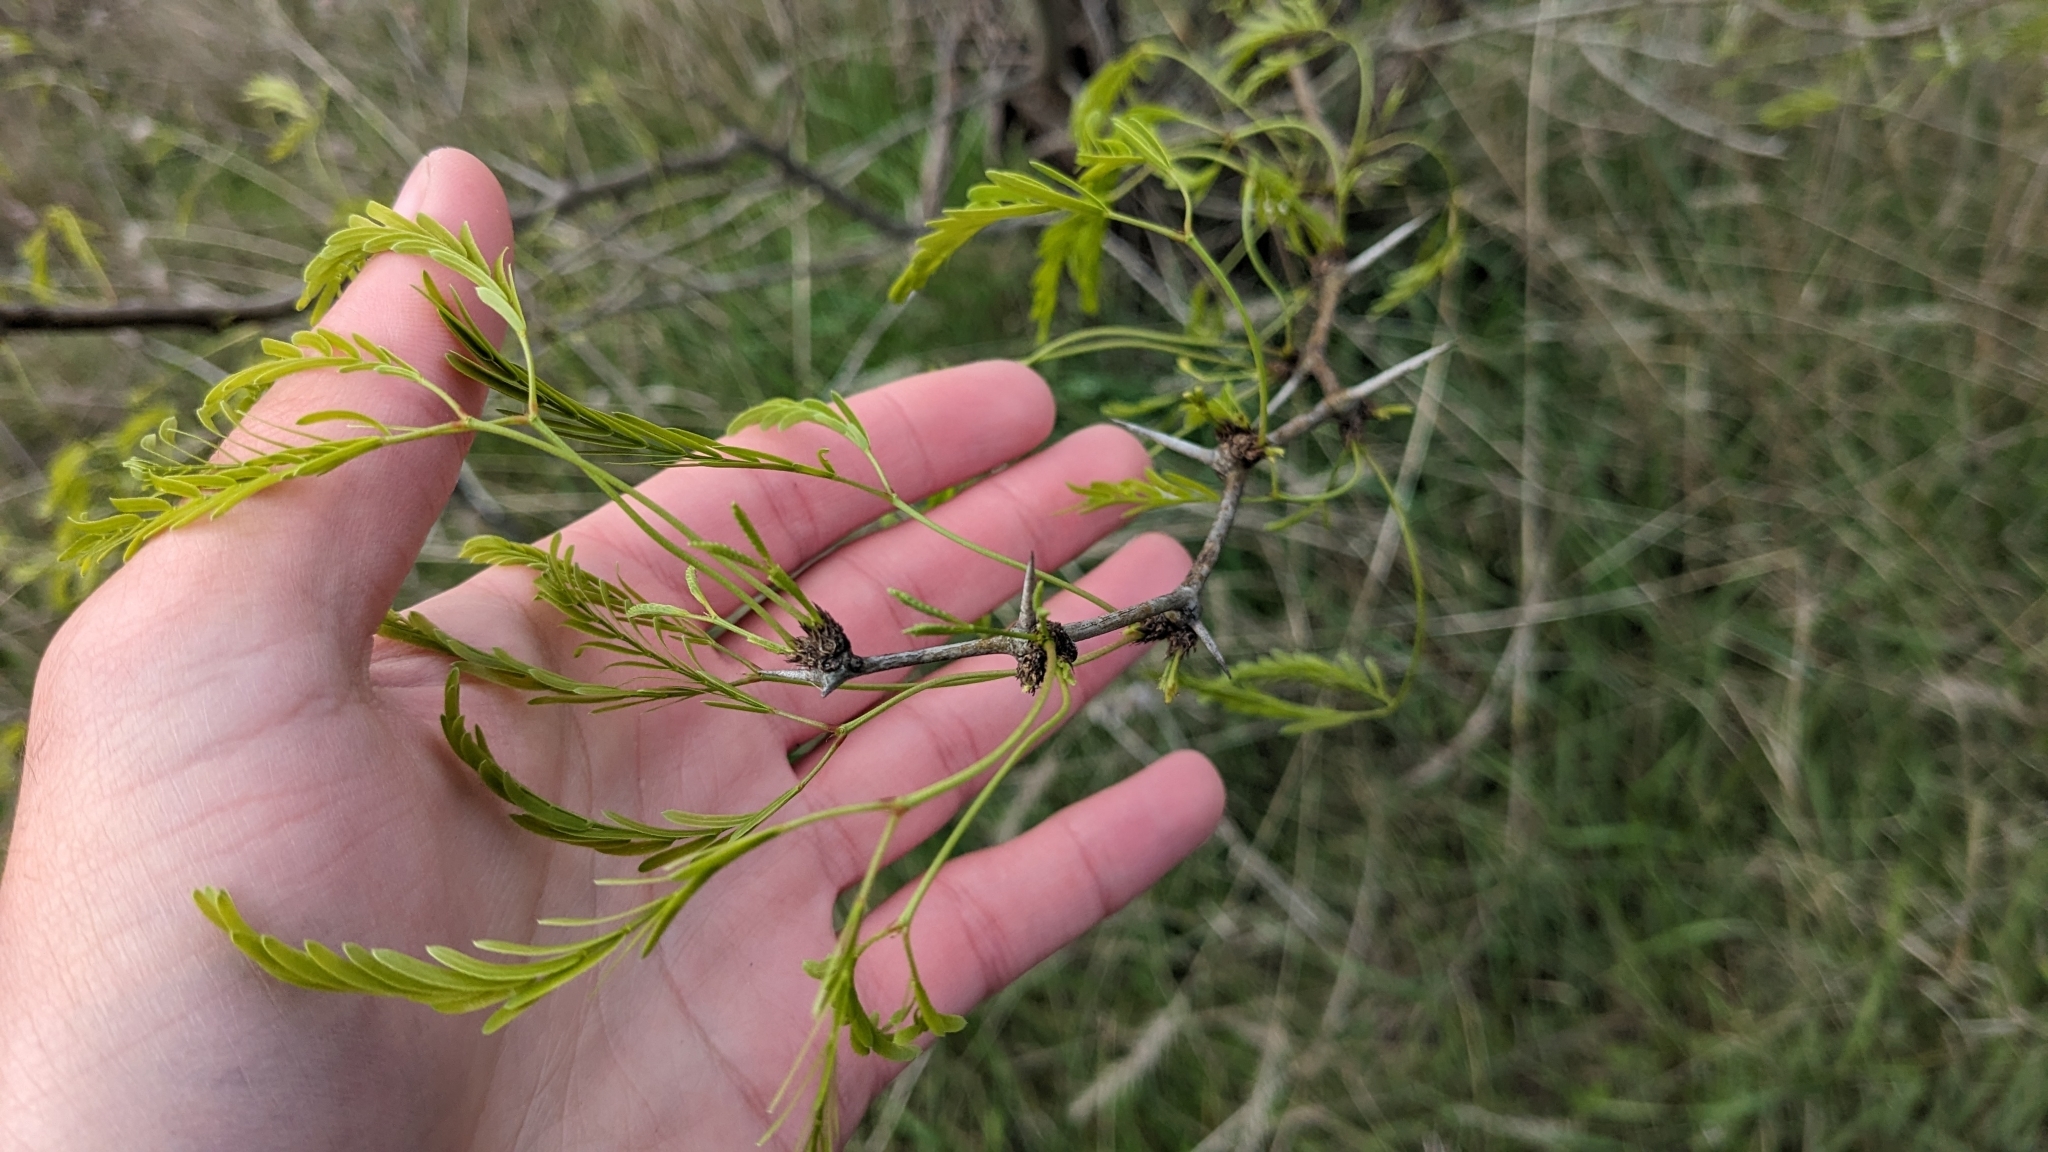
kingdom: Plantae
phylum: Tracheophyta
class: Magnoliopsida
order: Fabales
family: Fabaceae
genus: Prosopis
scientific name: Prosopis glandulosa
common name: Honey mesquite
